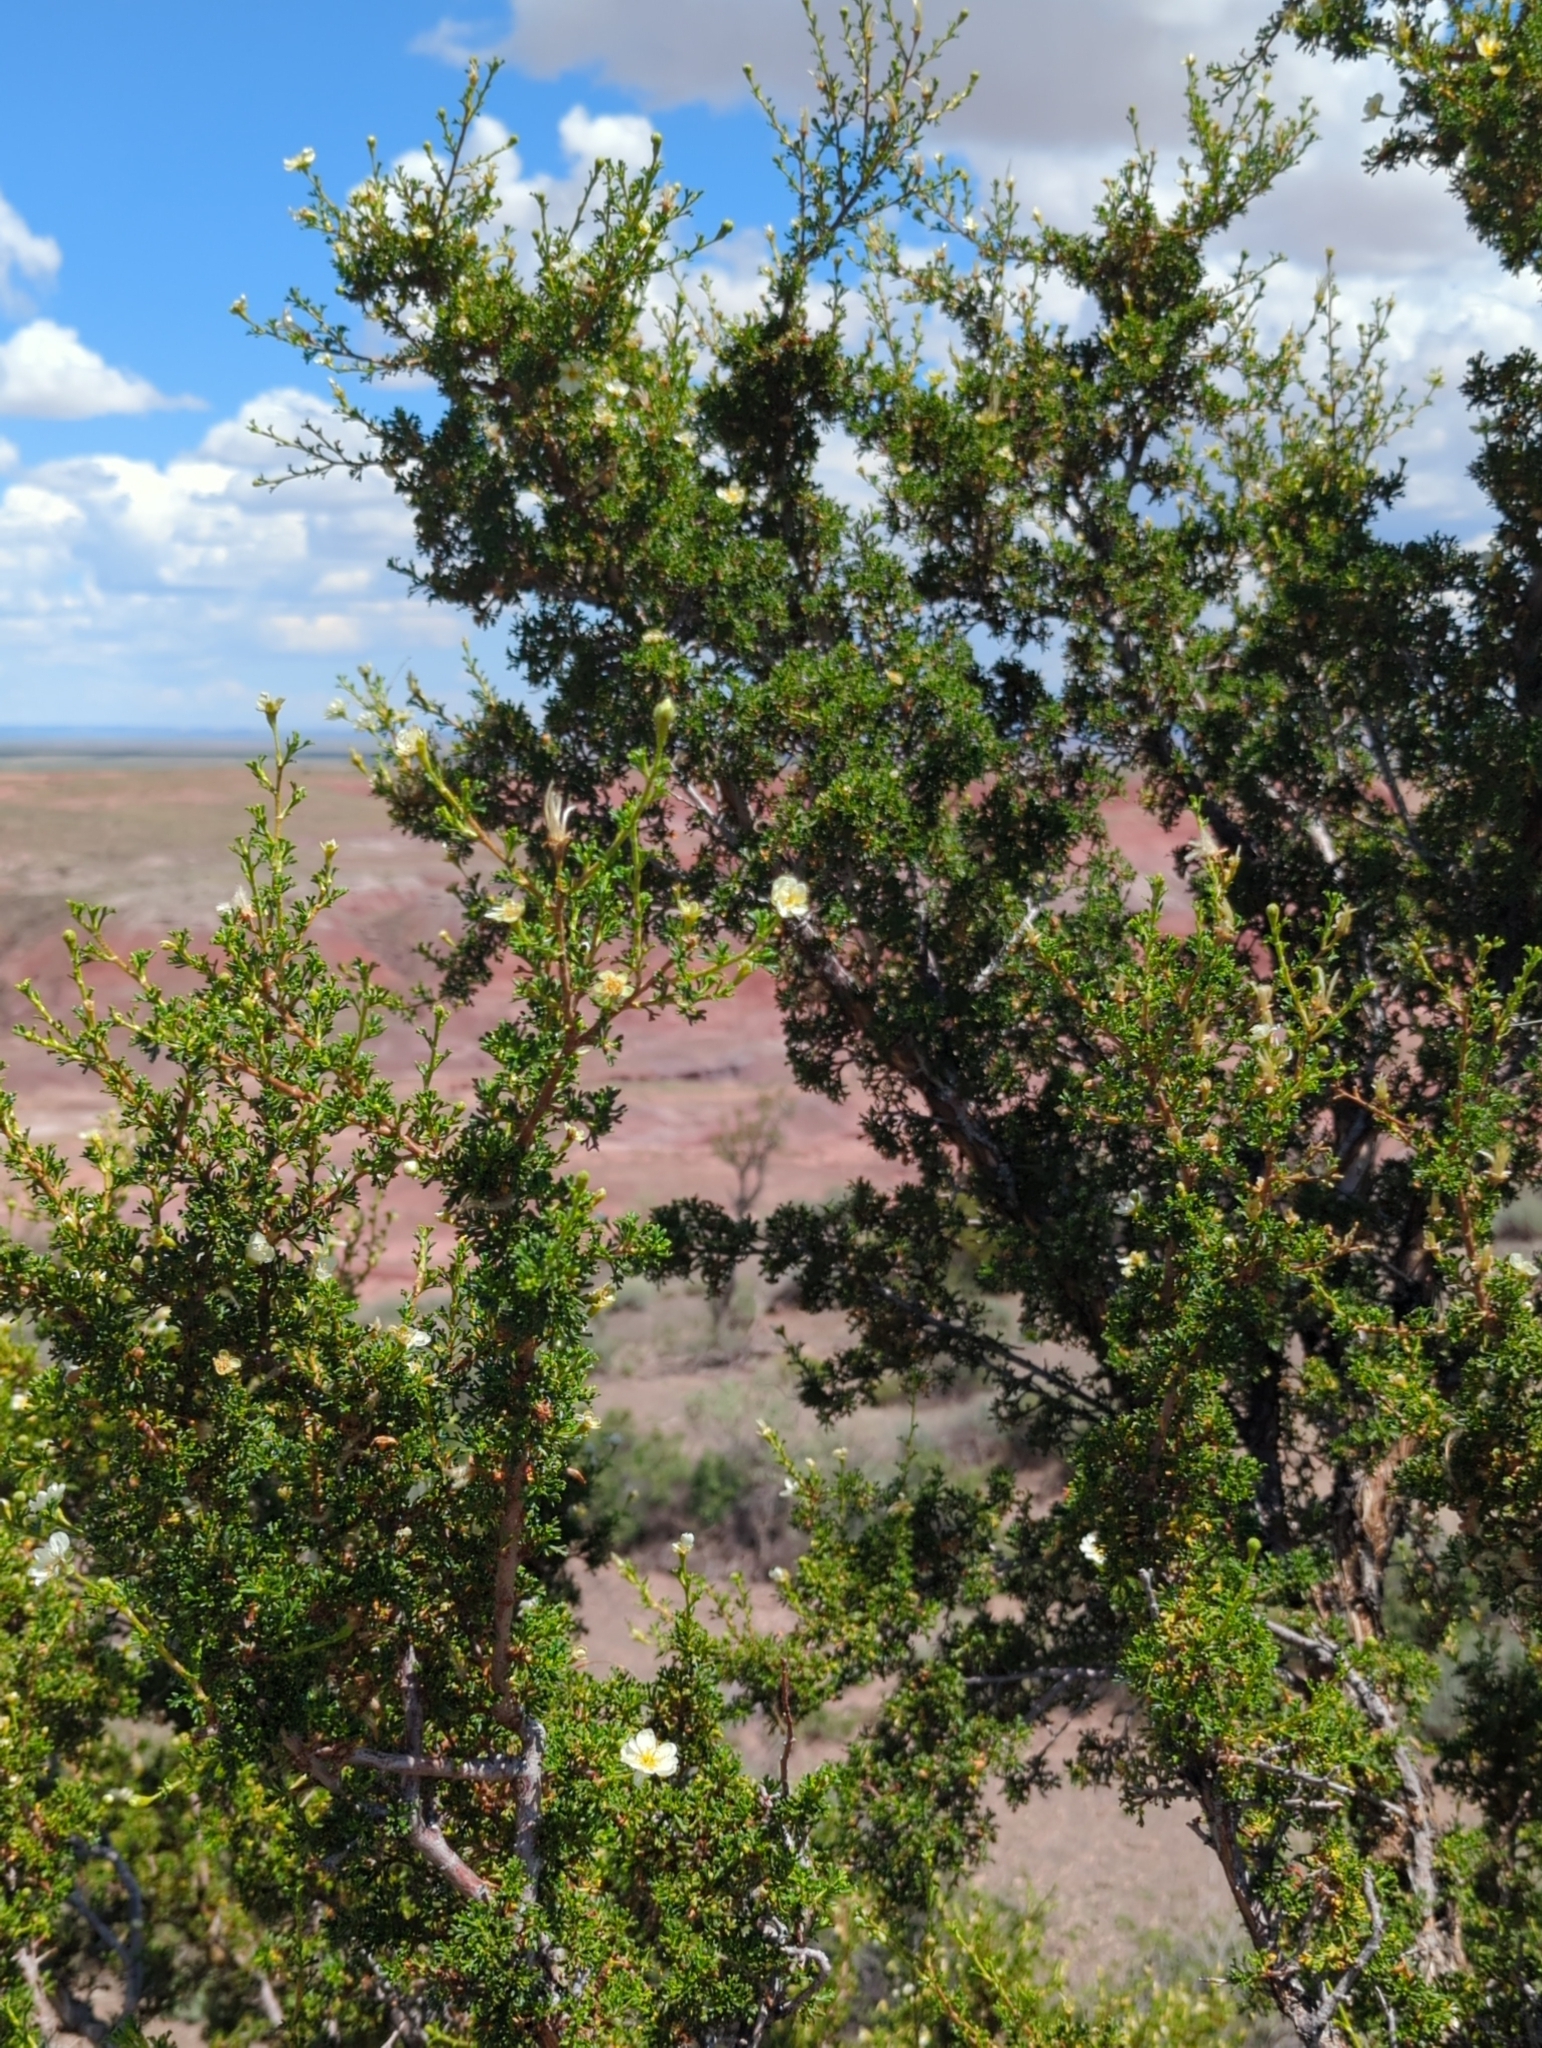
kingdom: Plantae
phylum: Tracheophyta
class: Magnoliopsida
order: Rosales
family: Rosaceae
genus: Purshia
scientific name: Purshia stansburiana
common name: Stansbury's cliffrose
